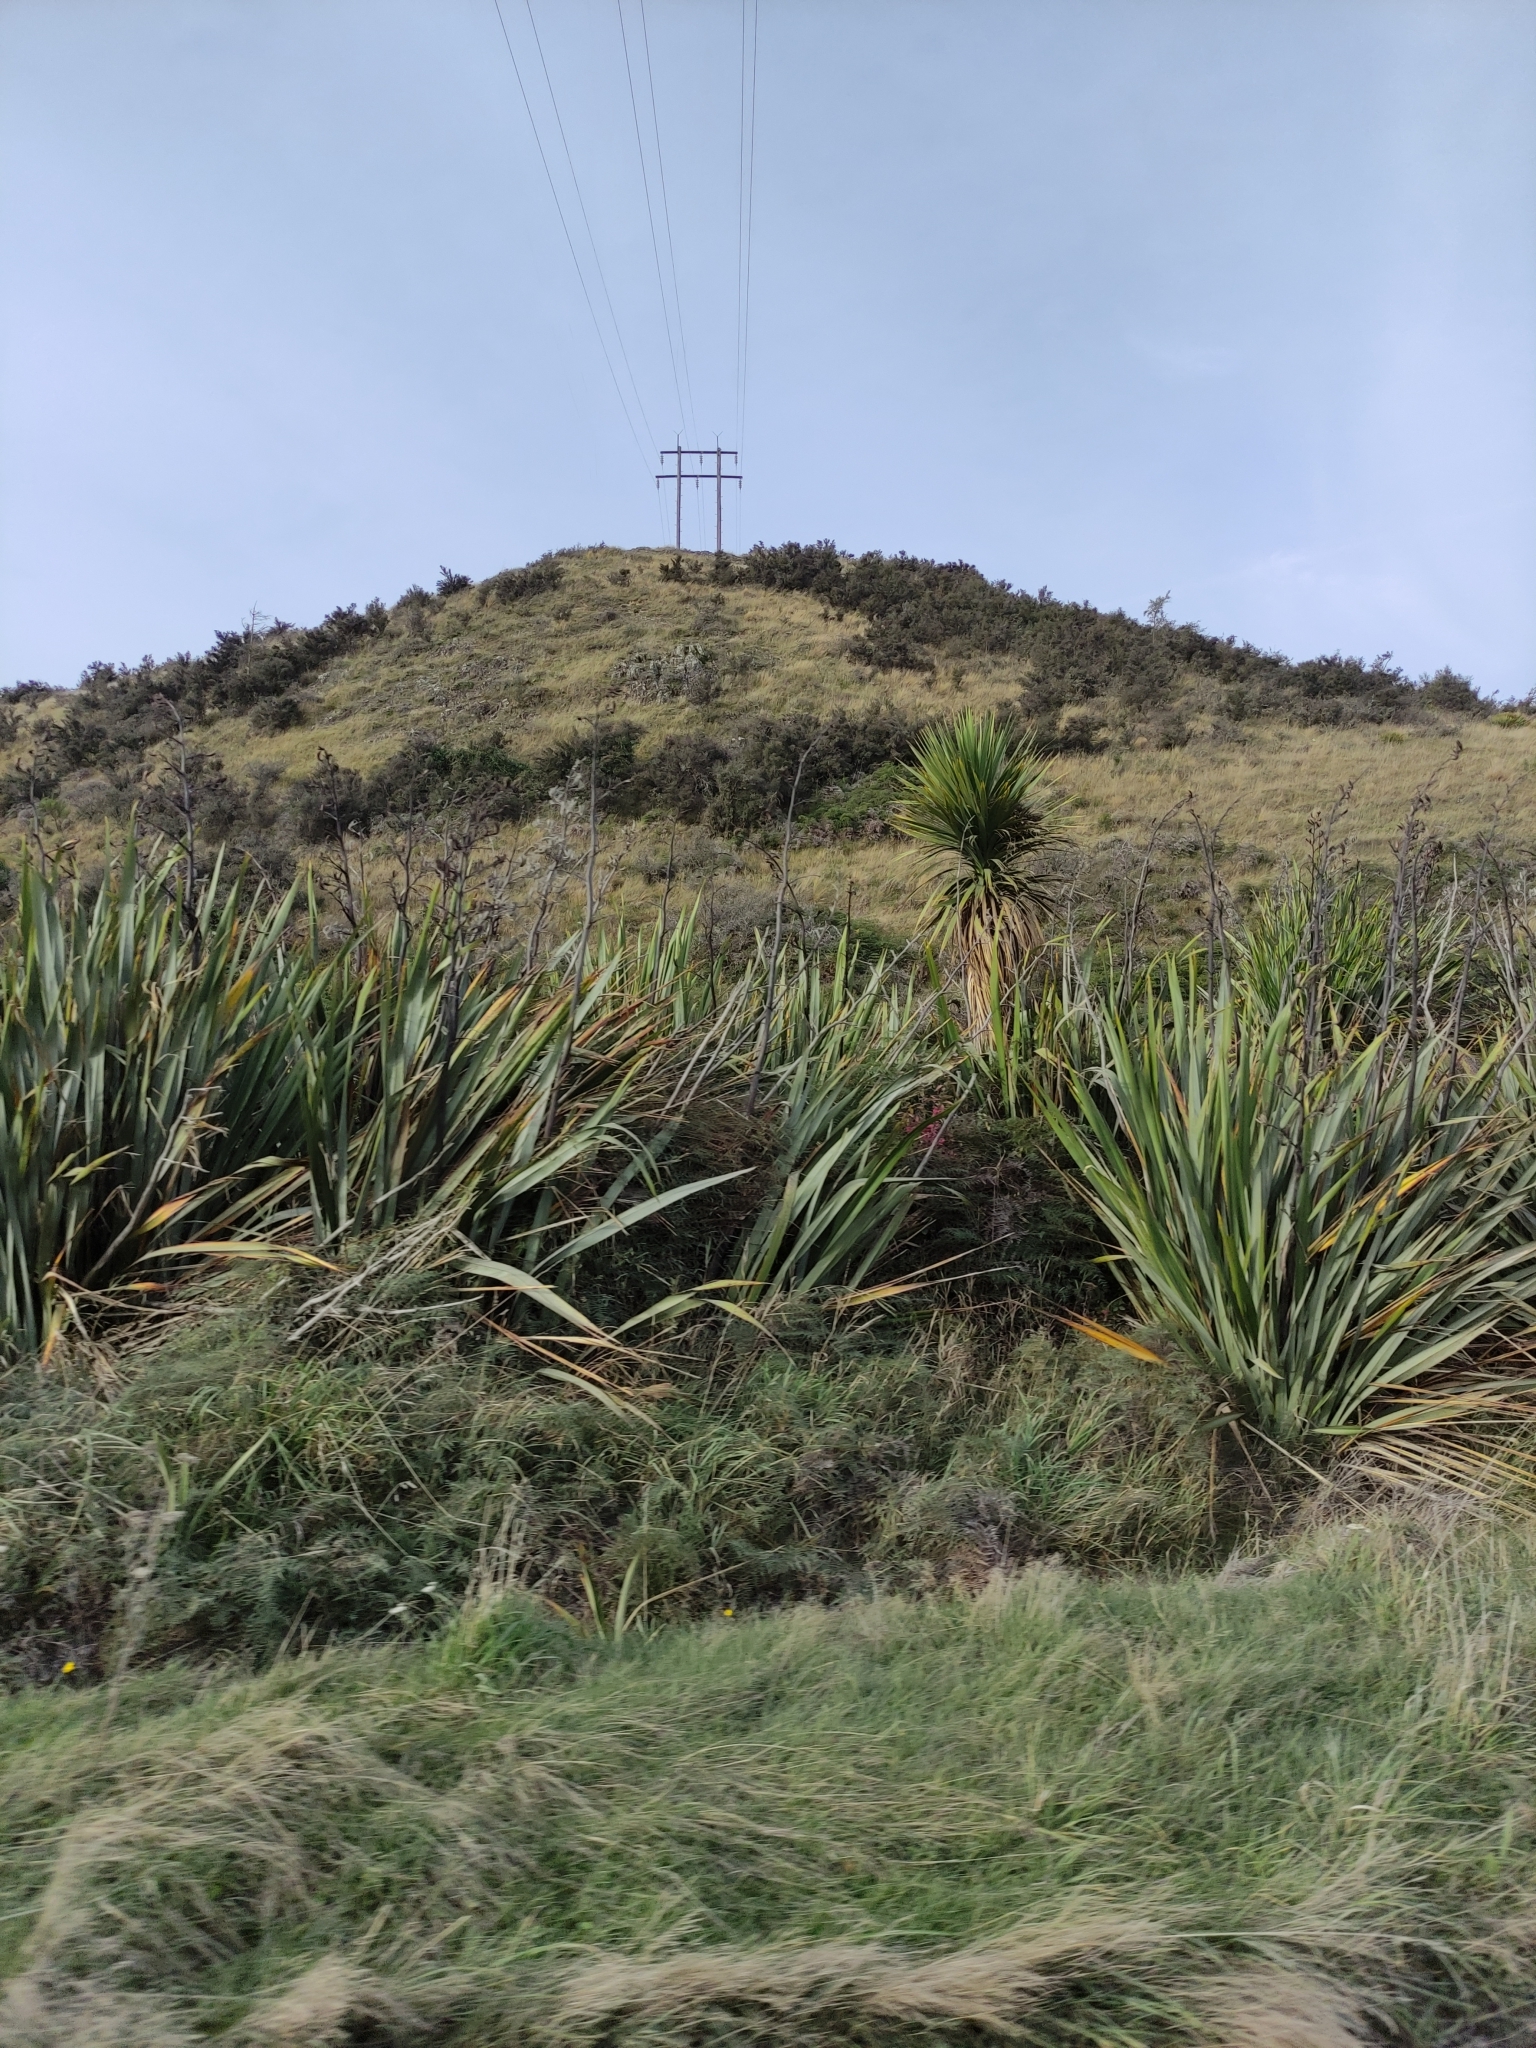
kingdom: Plantae
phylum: Tracheophyta
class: Liliopsida
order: Asparagales
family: Asphodelaceae
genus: Phormium
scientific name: Phormium tenax
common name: New zealand flax
